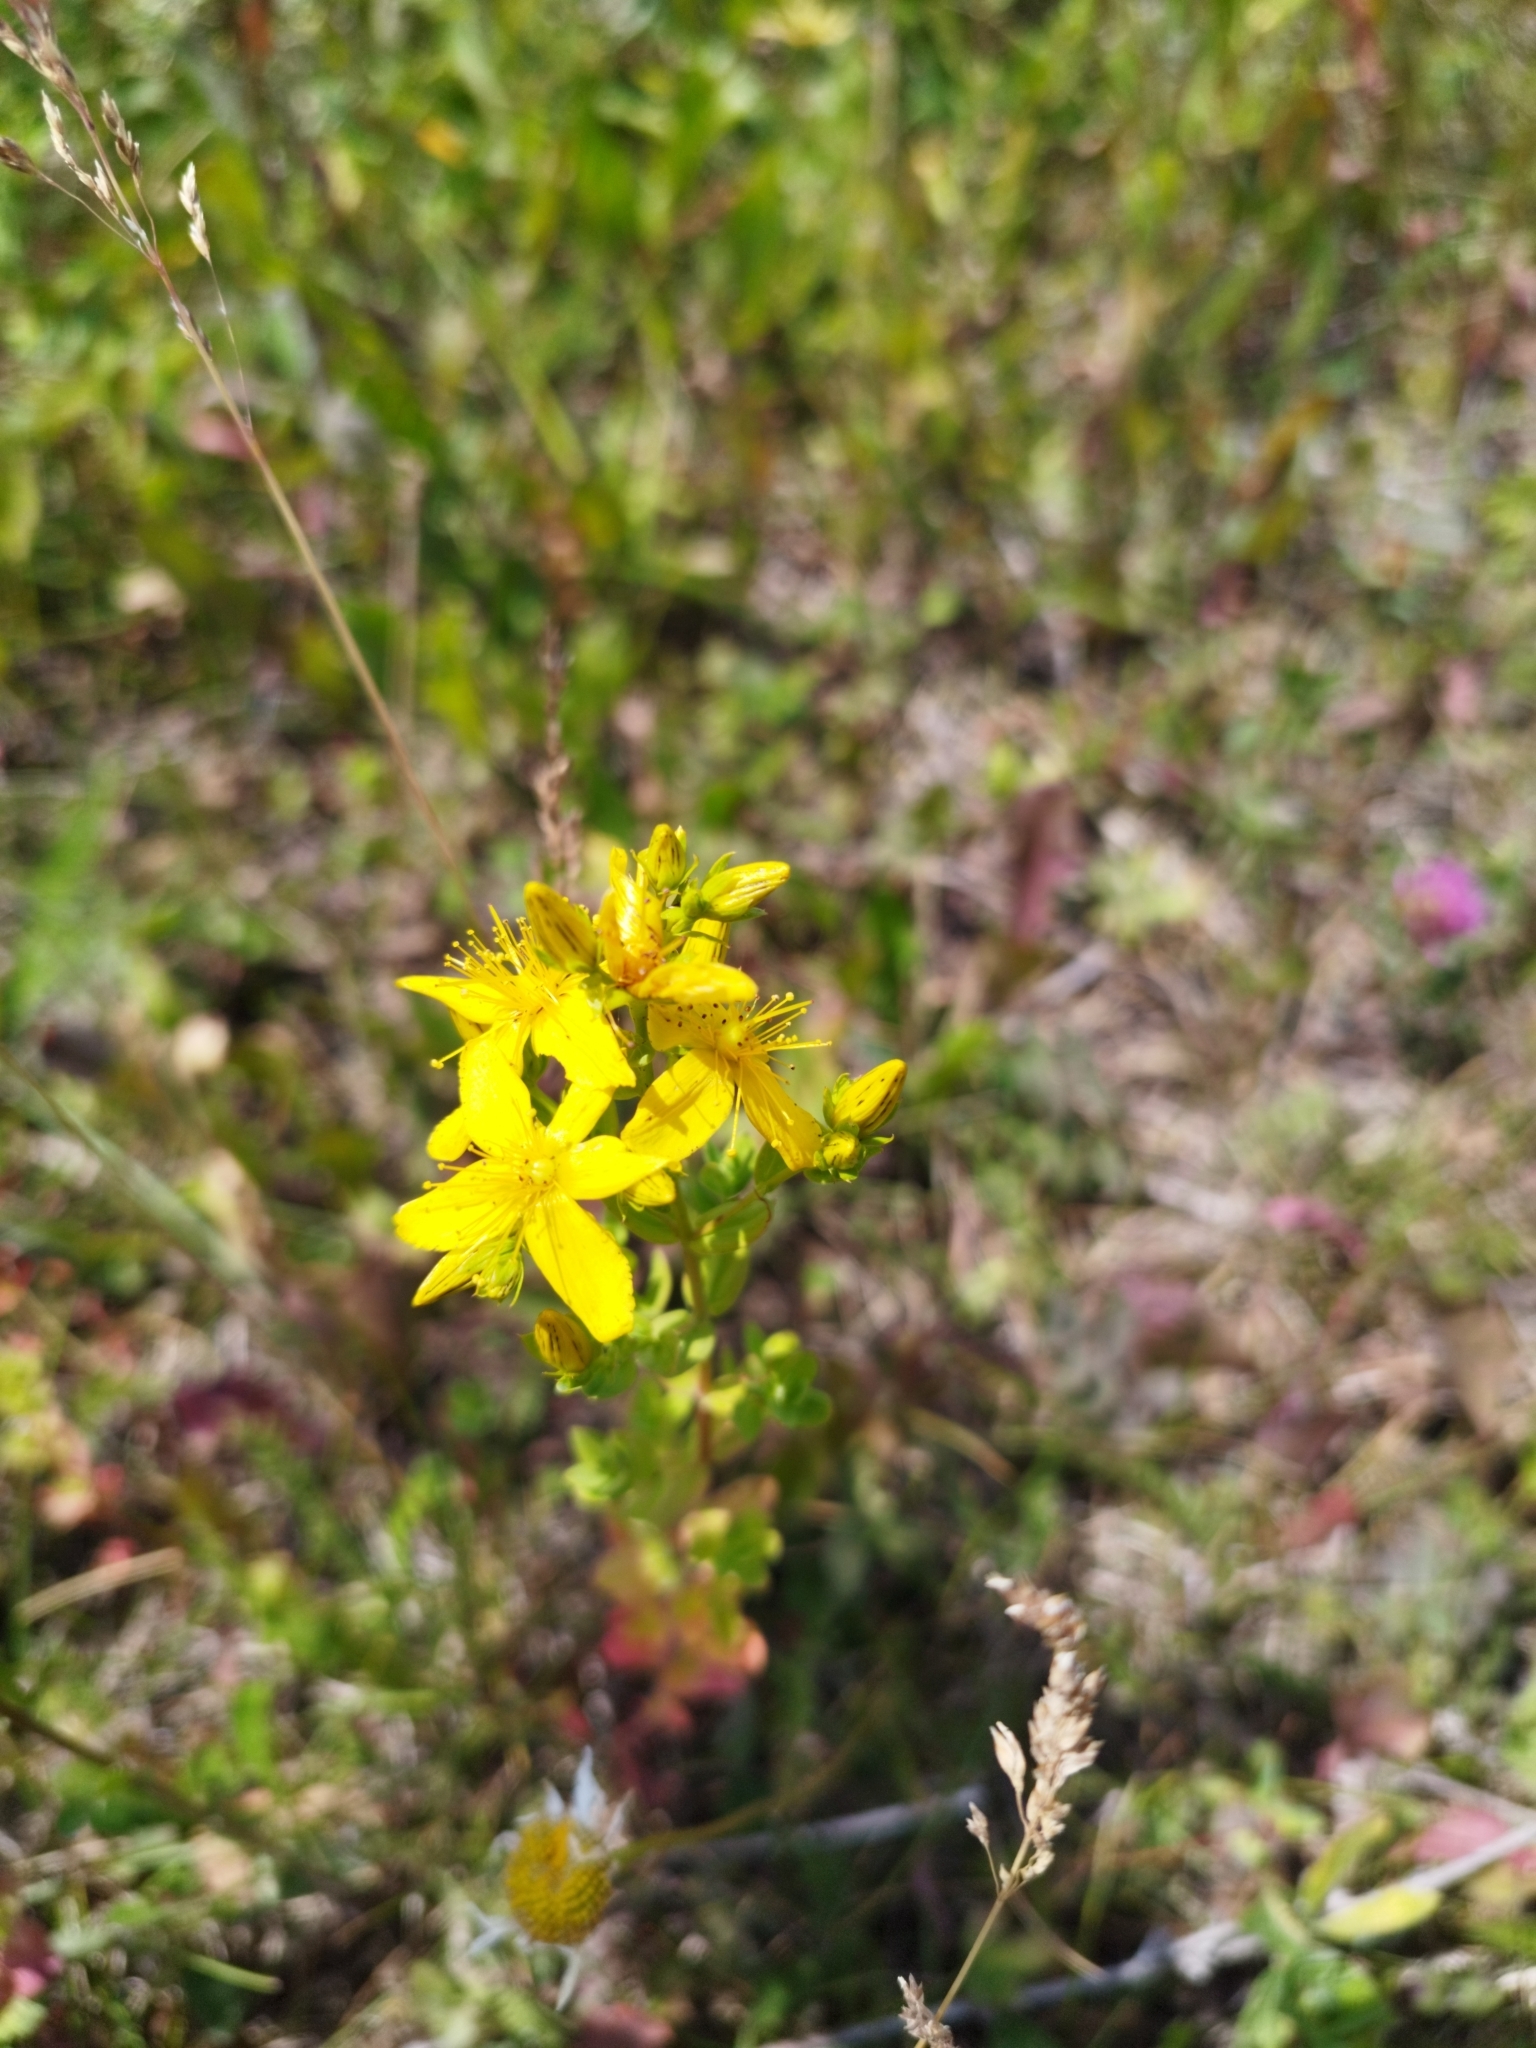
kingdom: Plantae
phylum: Tracheophyta
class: Magnoliopsida
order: Malpighiales
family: Hypericaceae
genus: Hypericum
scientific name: Hypericum perforatum
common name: Common st. johnswort
